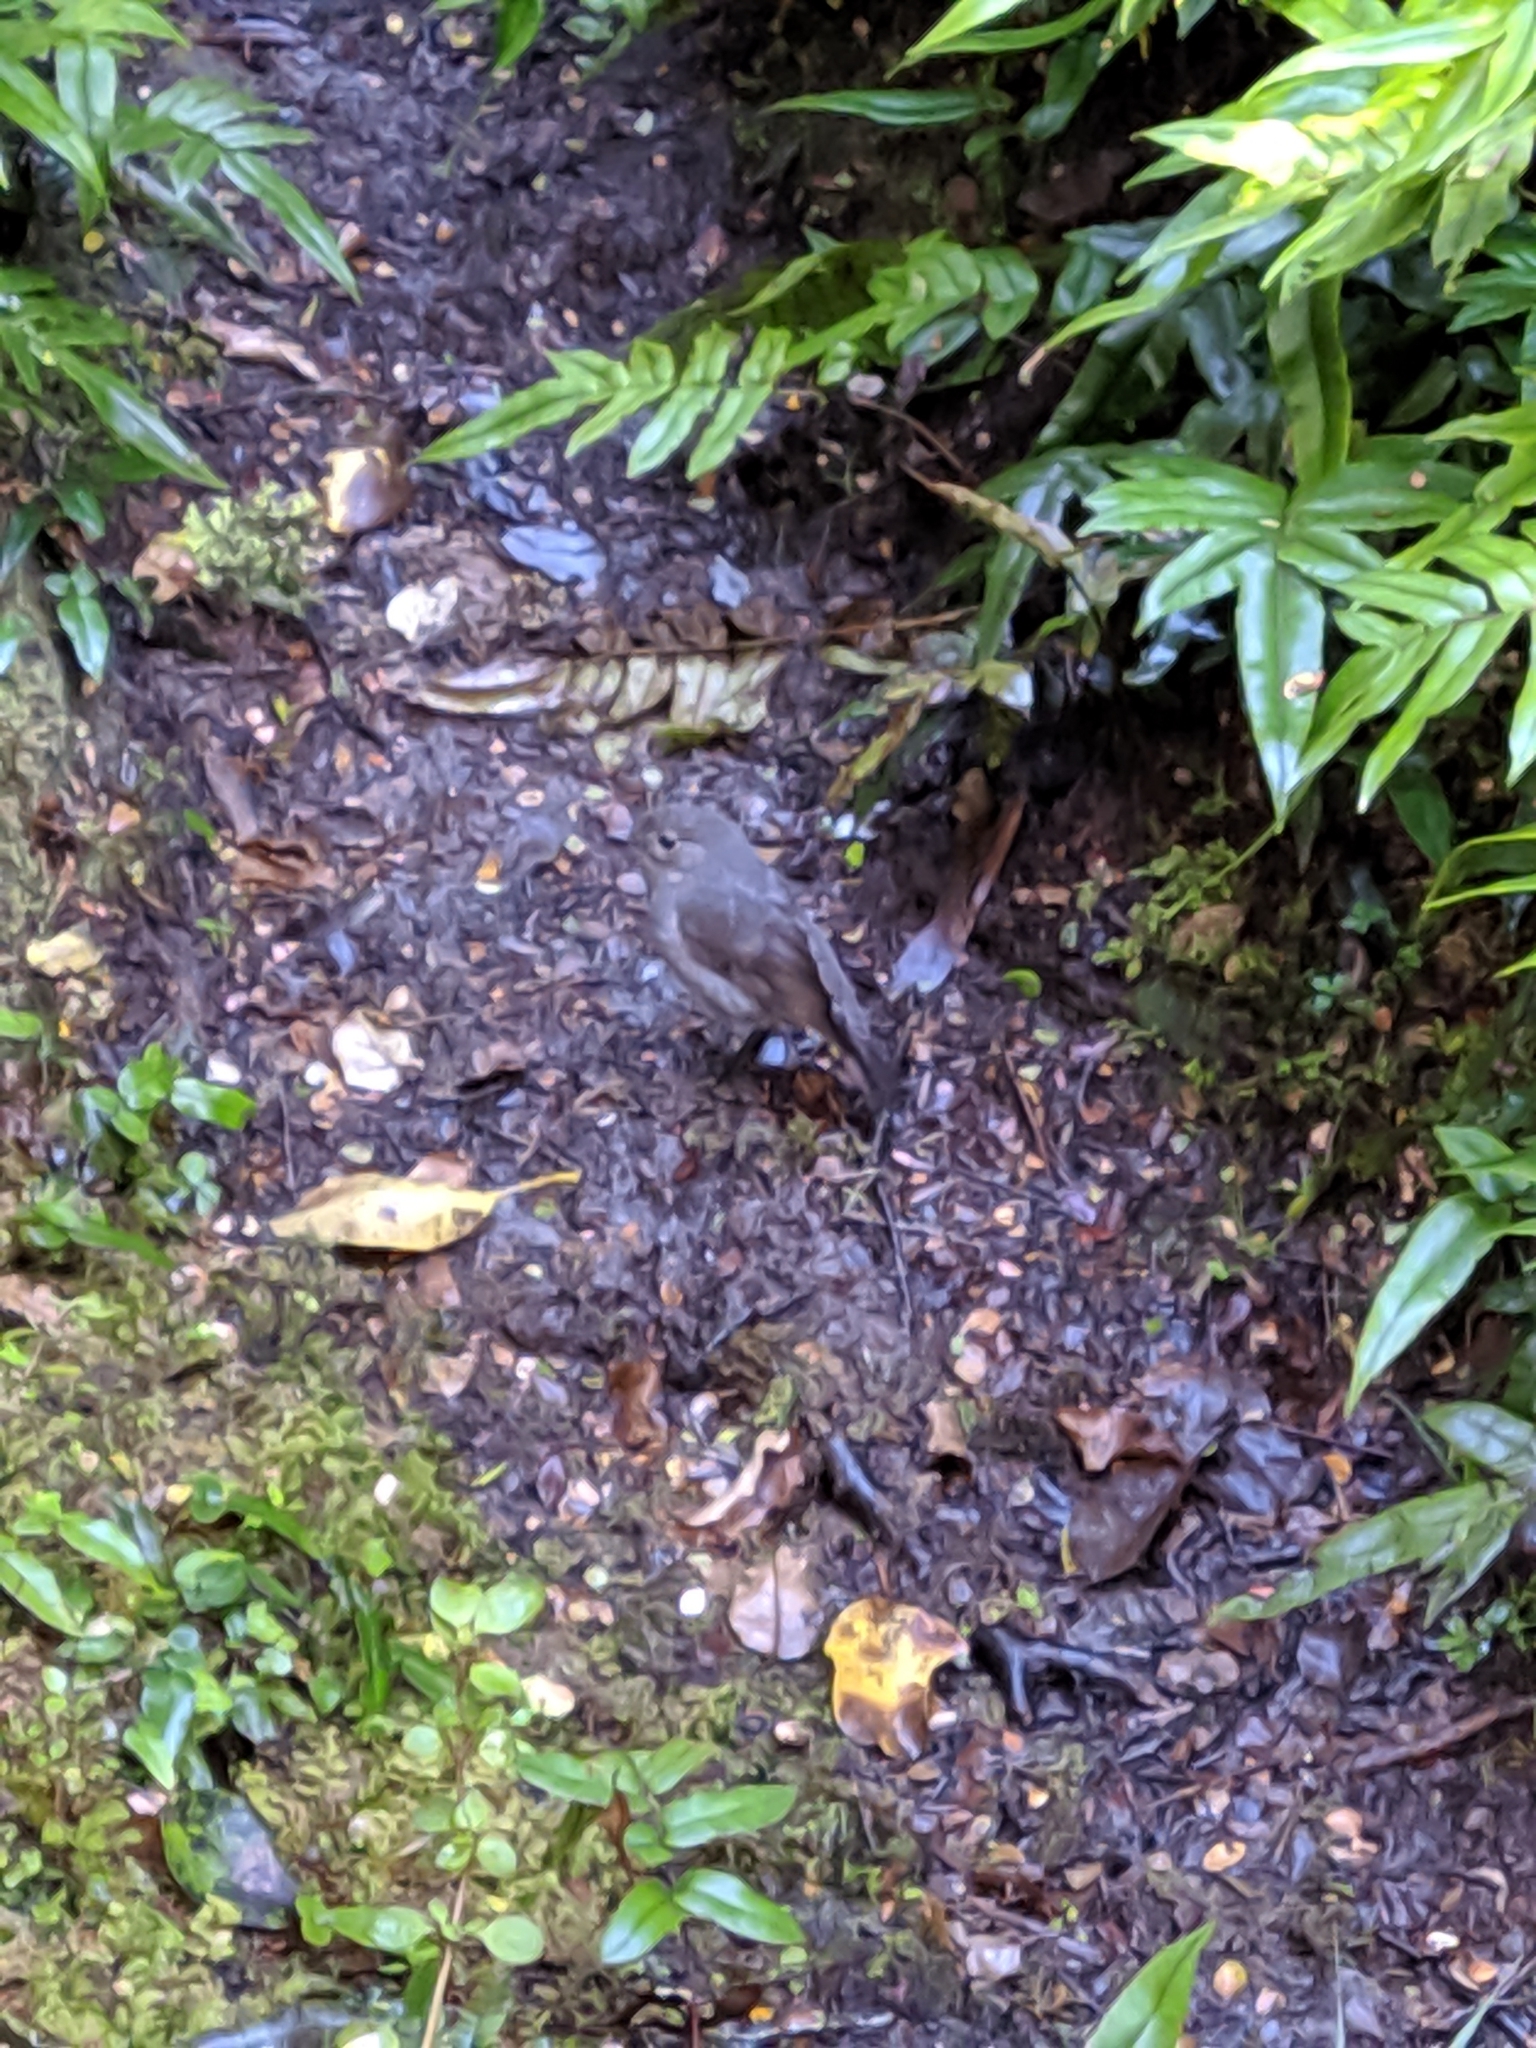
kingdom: Animalia
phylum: Chordata
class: Aves
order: Passeriformes
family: Petroicidae
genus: Petroica
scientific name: Petroica australis
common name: New zealand robin
